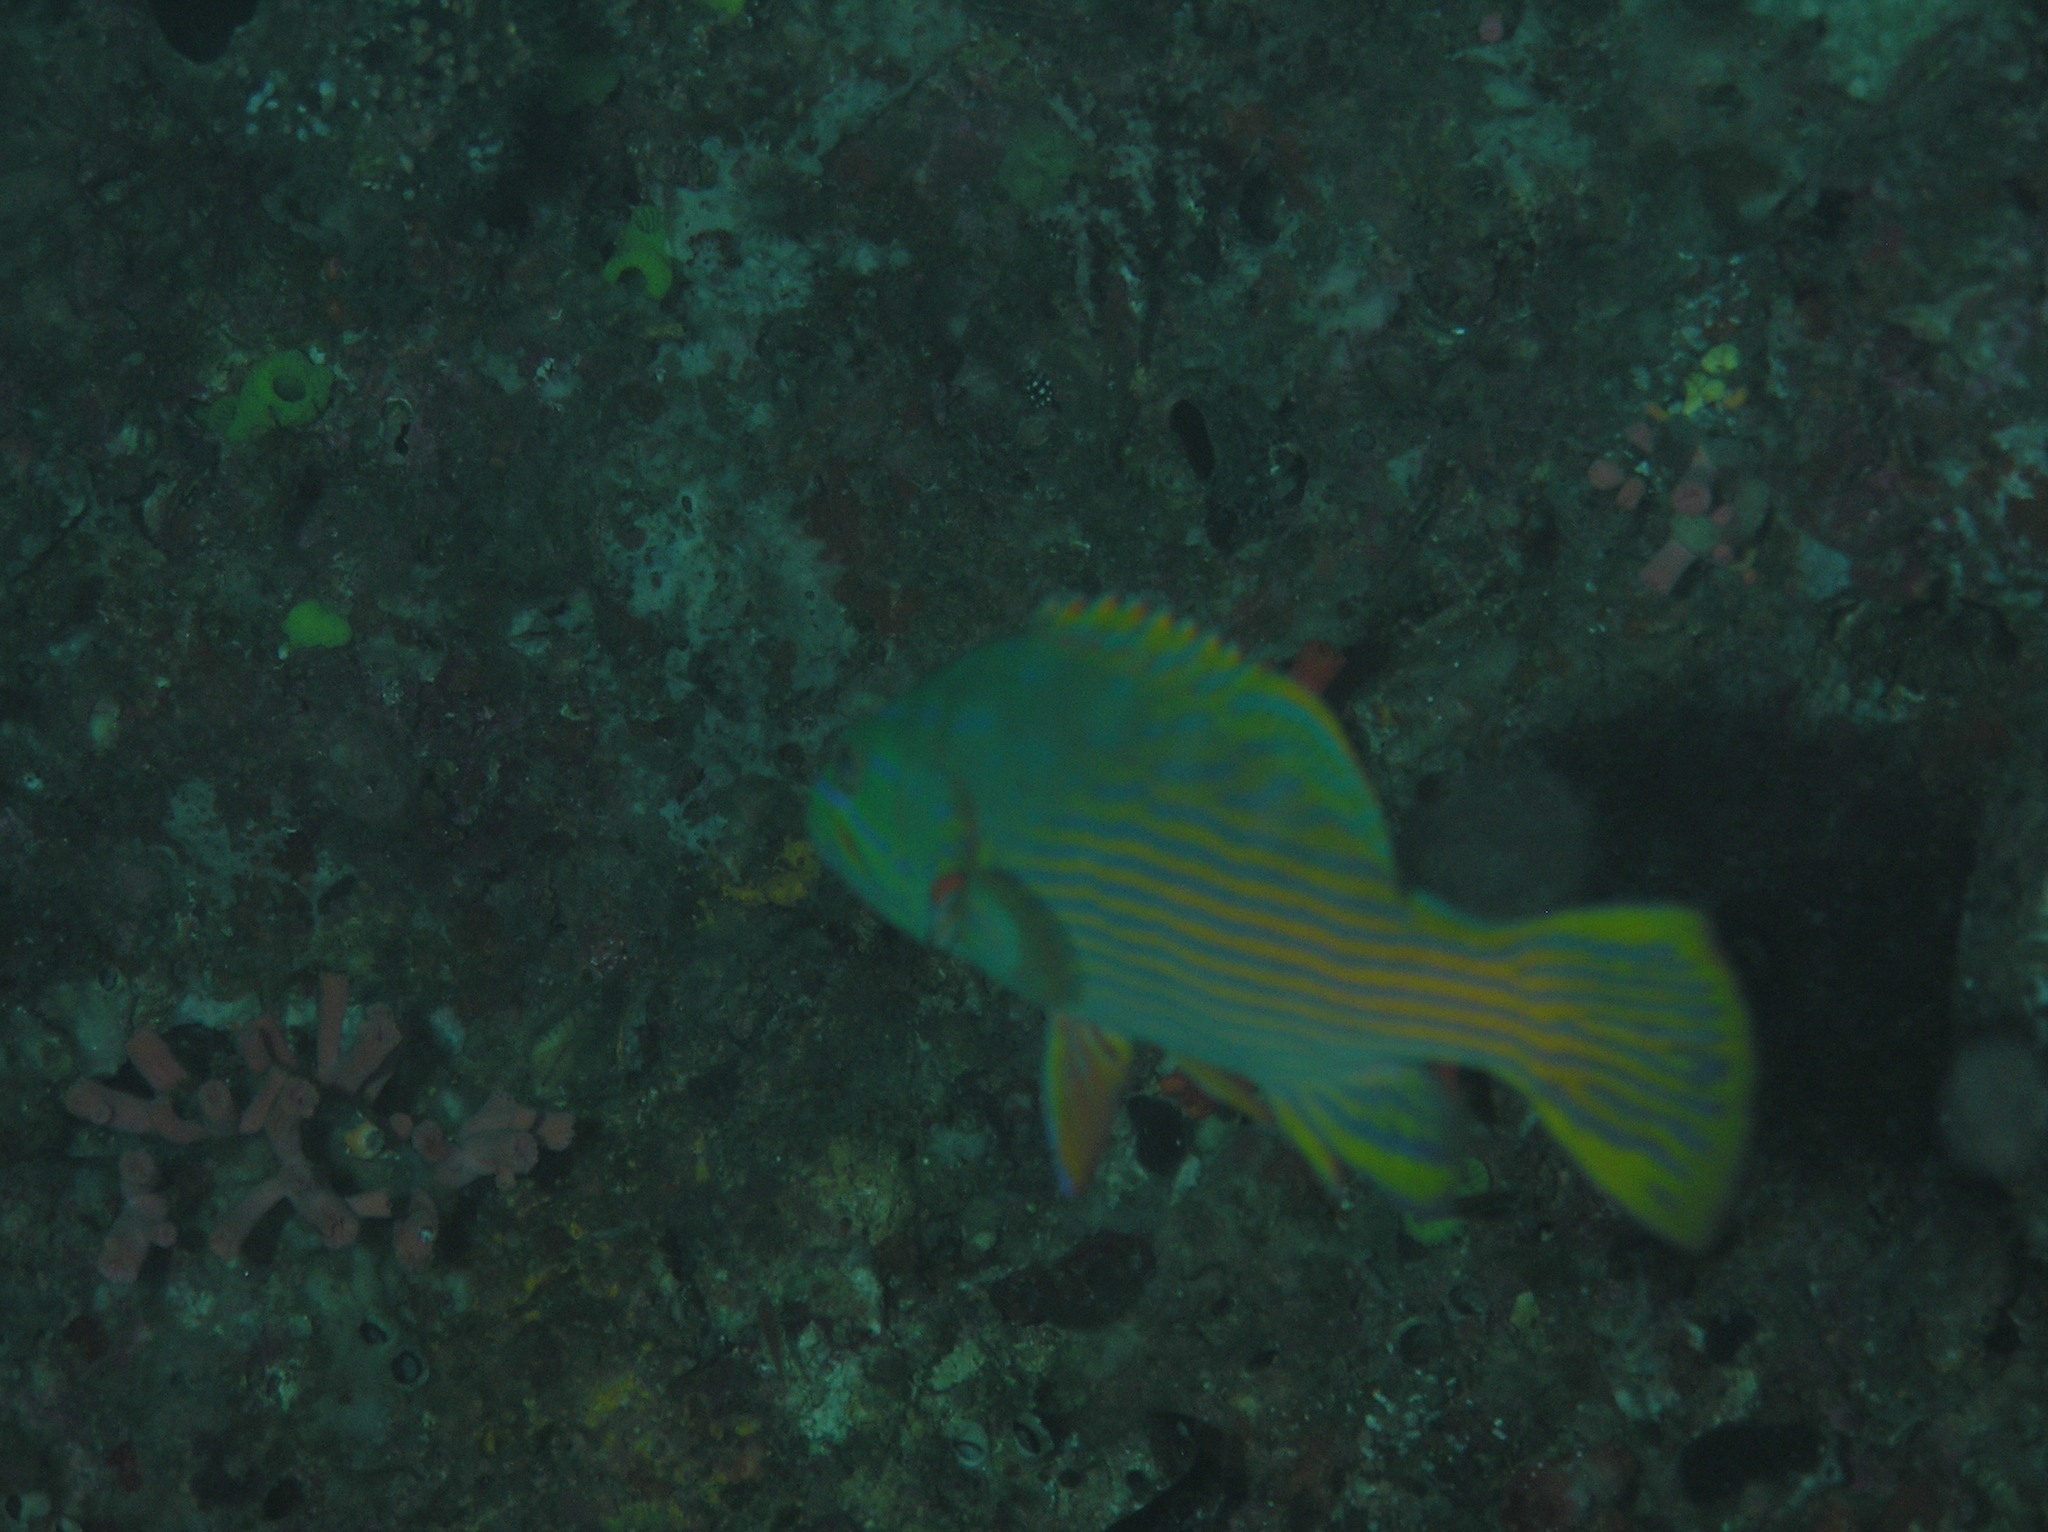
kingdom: Animalia
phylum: Chordata
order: Perciformes
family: Serranidae
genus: Cephalopholis
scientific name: Cephalopholis polleni
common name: Harlequin hind
